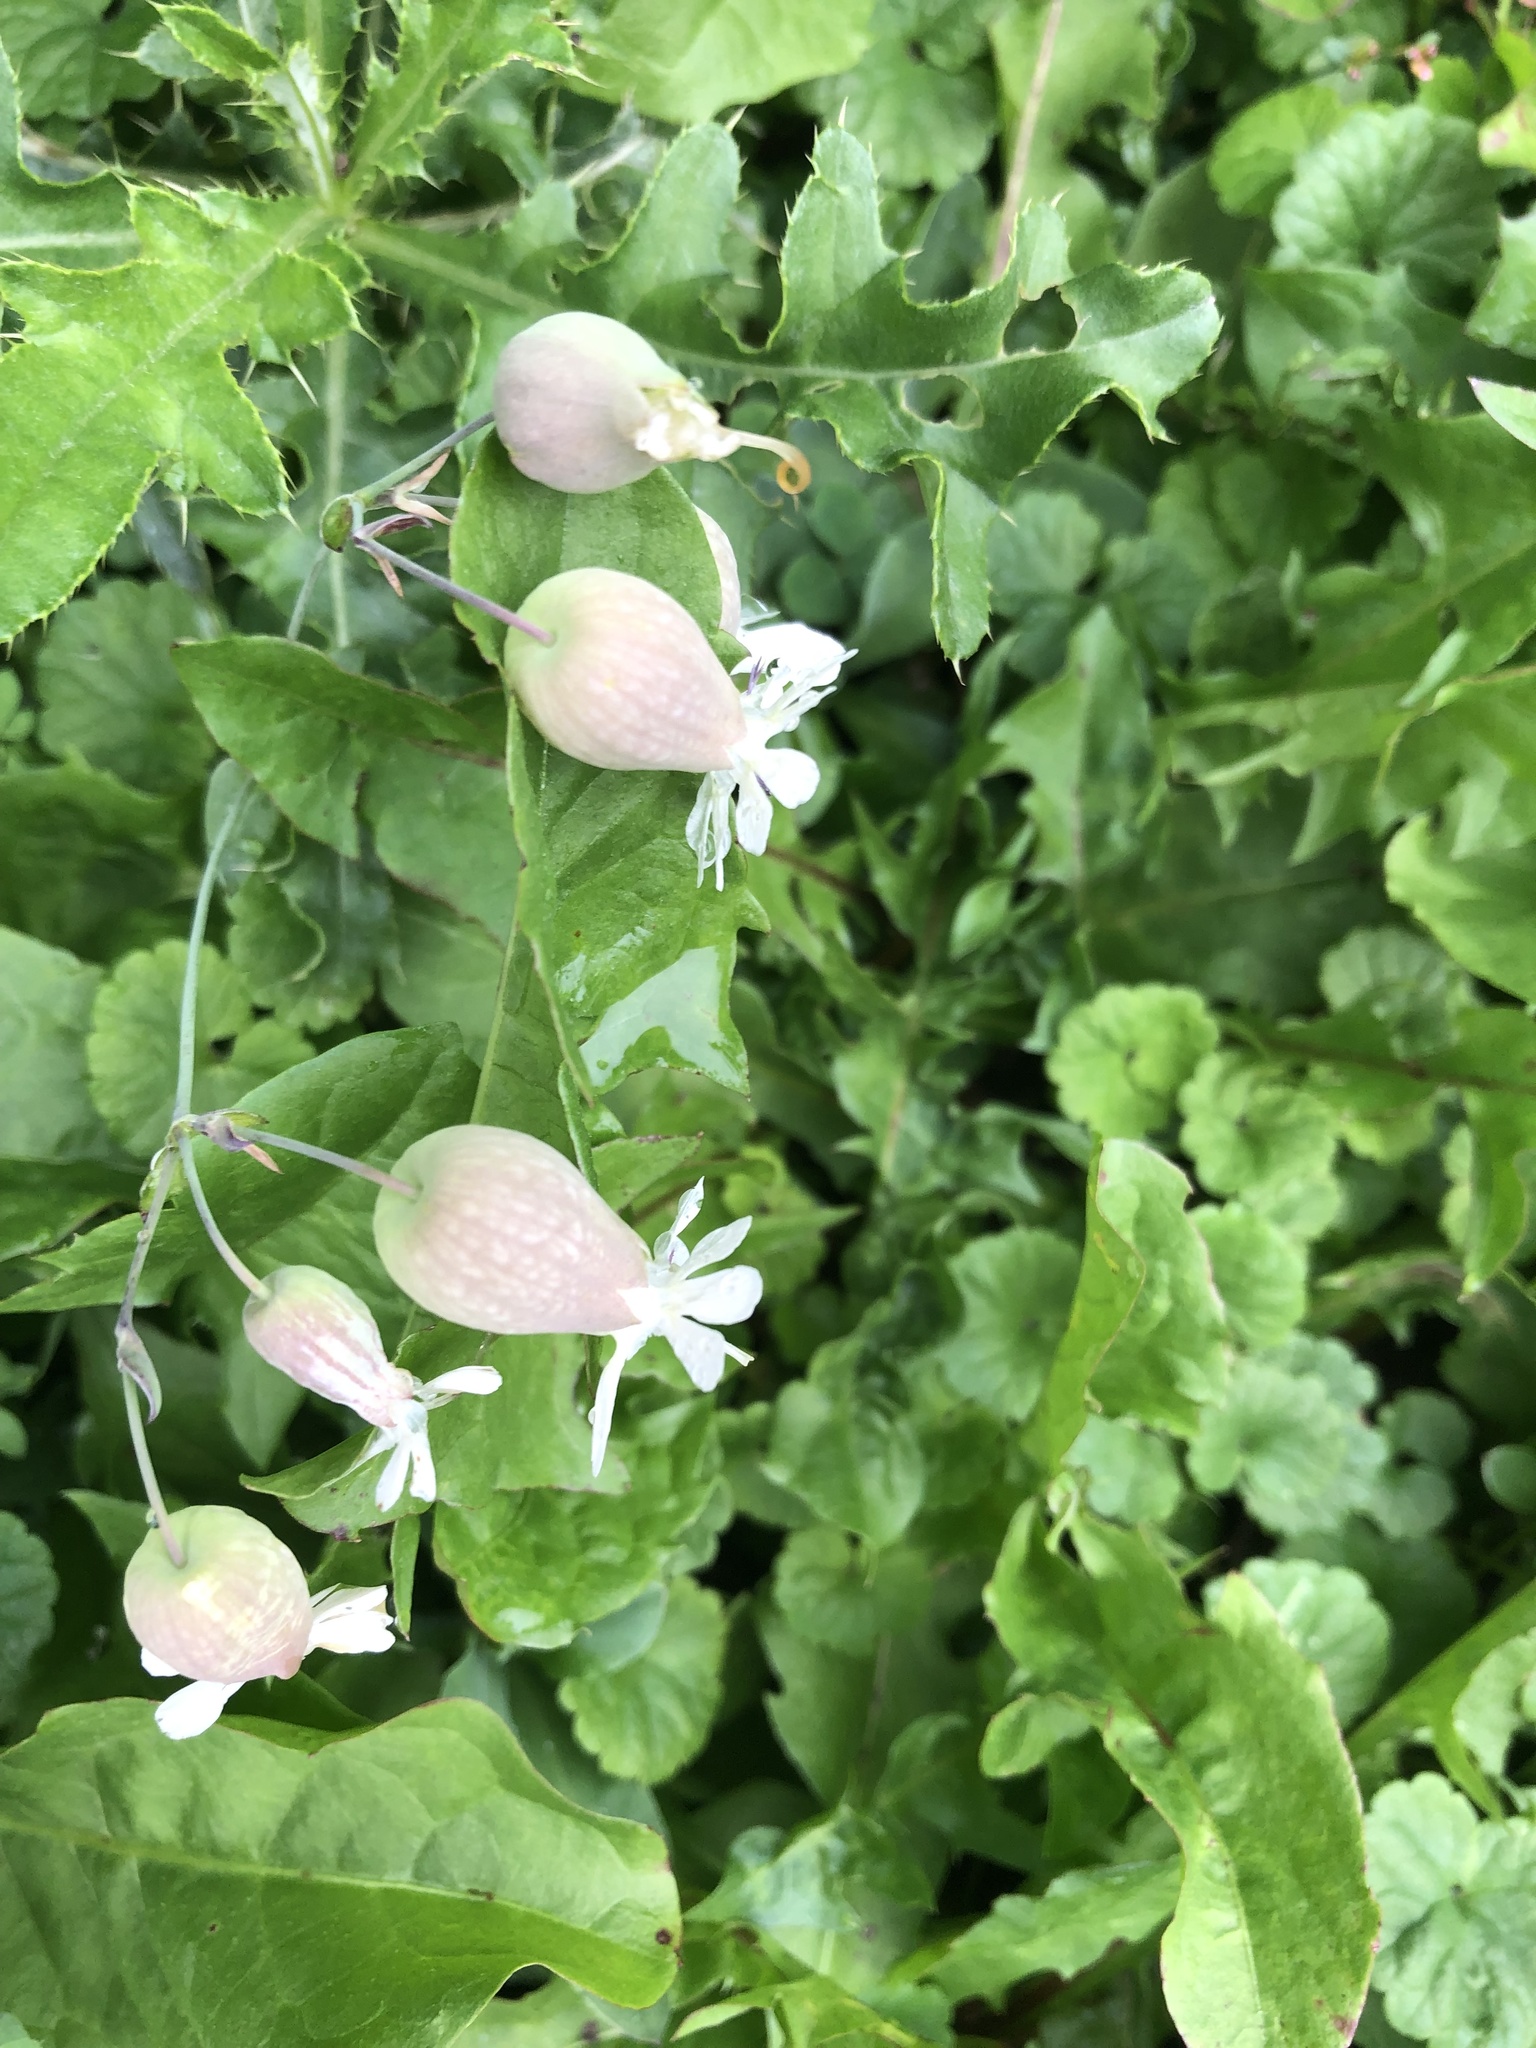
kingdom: Plantae
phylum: Tracheophyta
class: Magnoliopsida
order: Caryophyllales
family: Caryophyllaceae
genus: Silene
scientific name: Silene vulgaris
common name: Bladder campion
